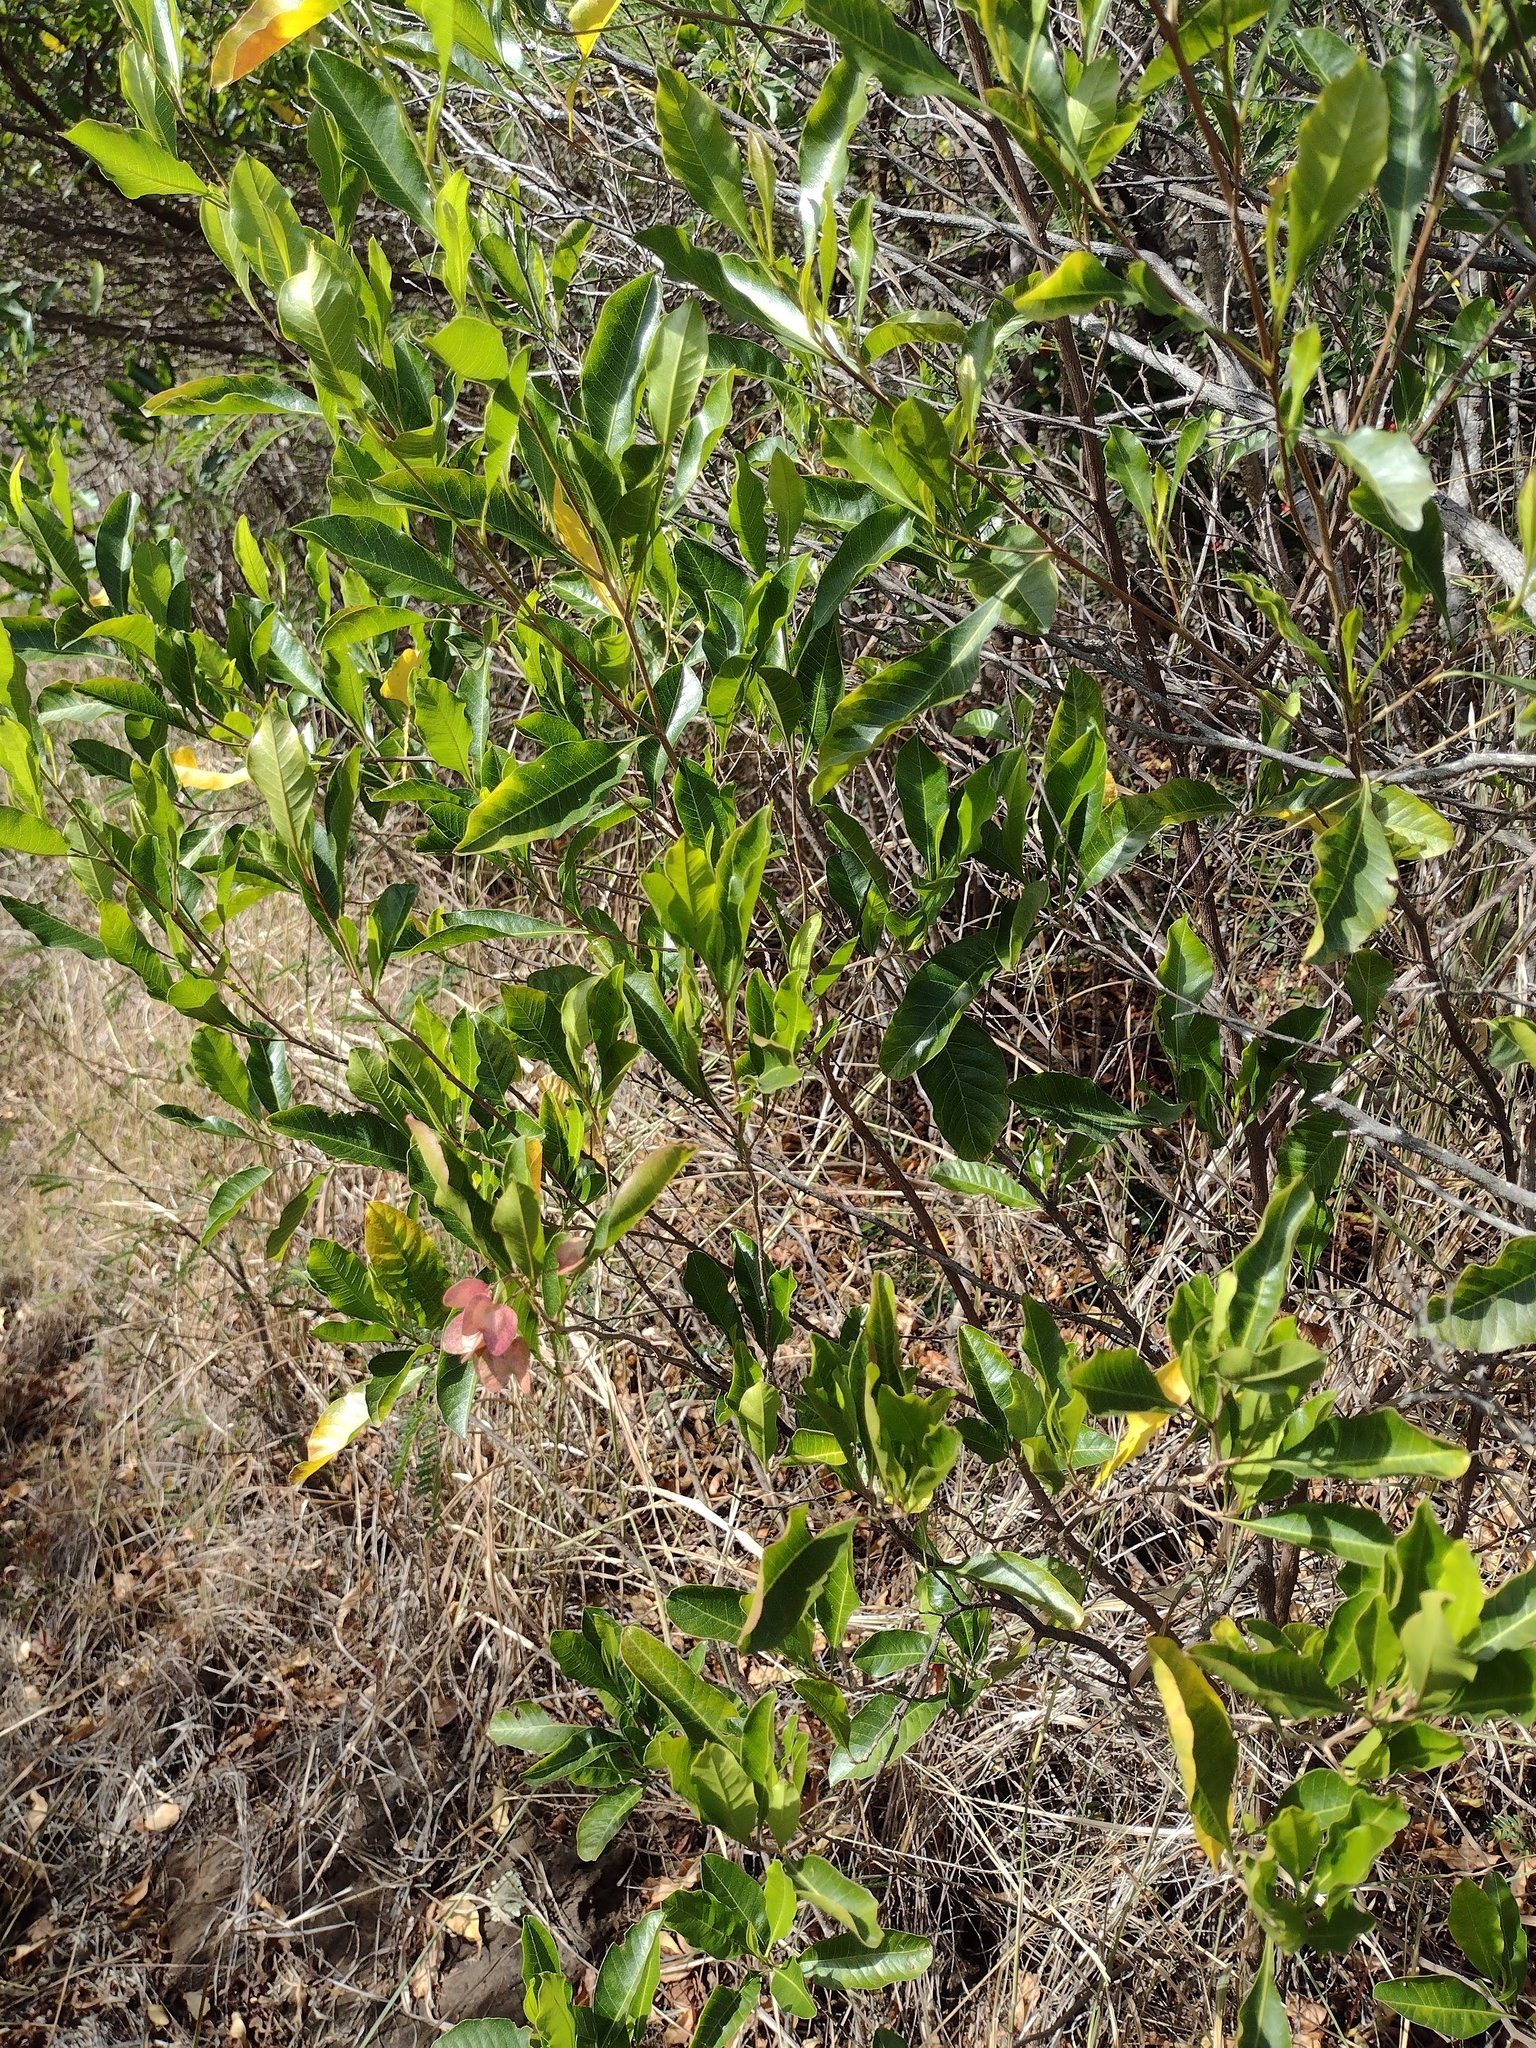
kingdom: Plantae
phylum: Tracheophyta
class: Magnoliopsida
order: Sapindales
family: Sapindaceae
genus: Dodonaea
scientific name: Dodonaea viscosa
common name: Hopbush
